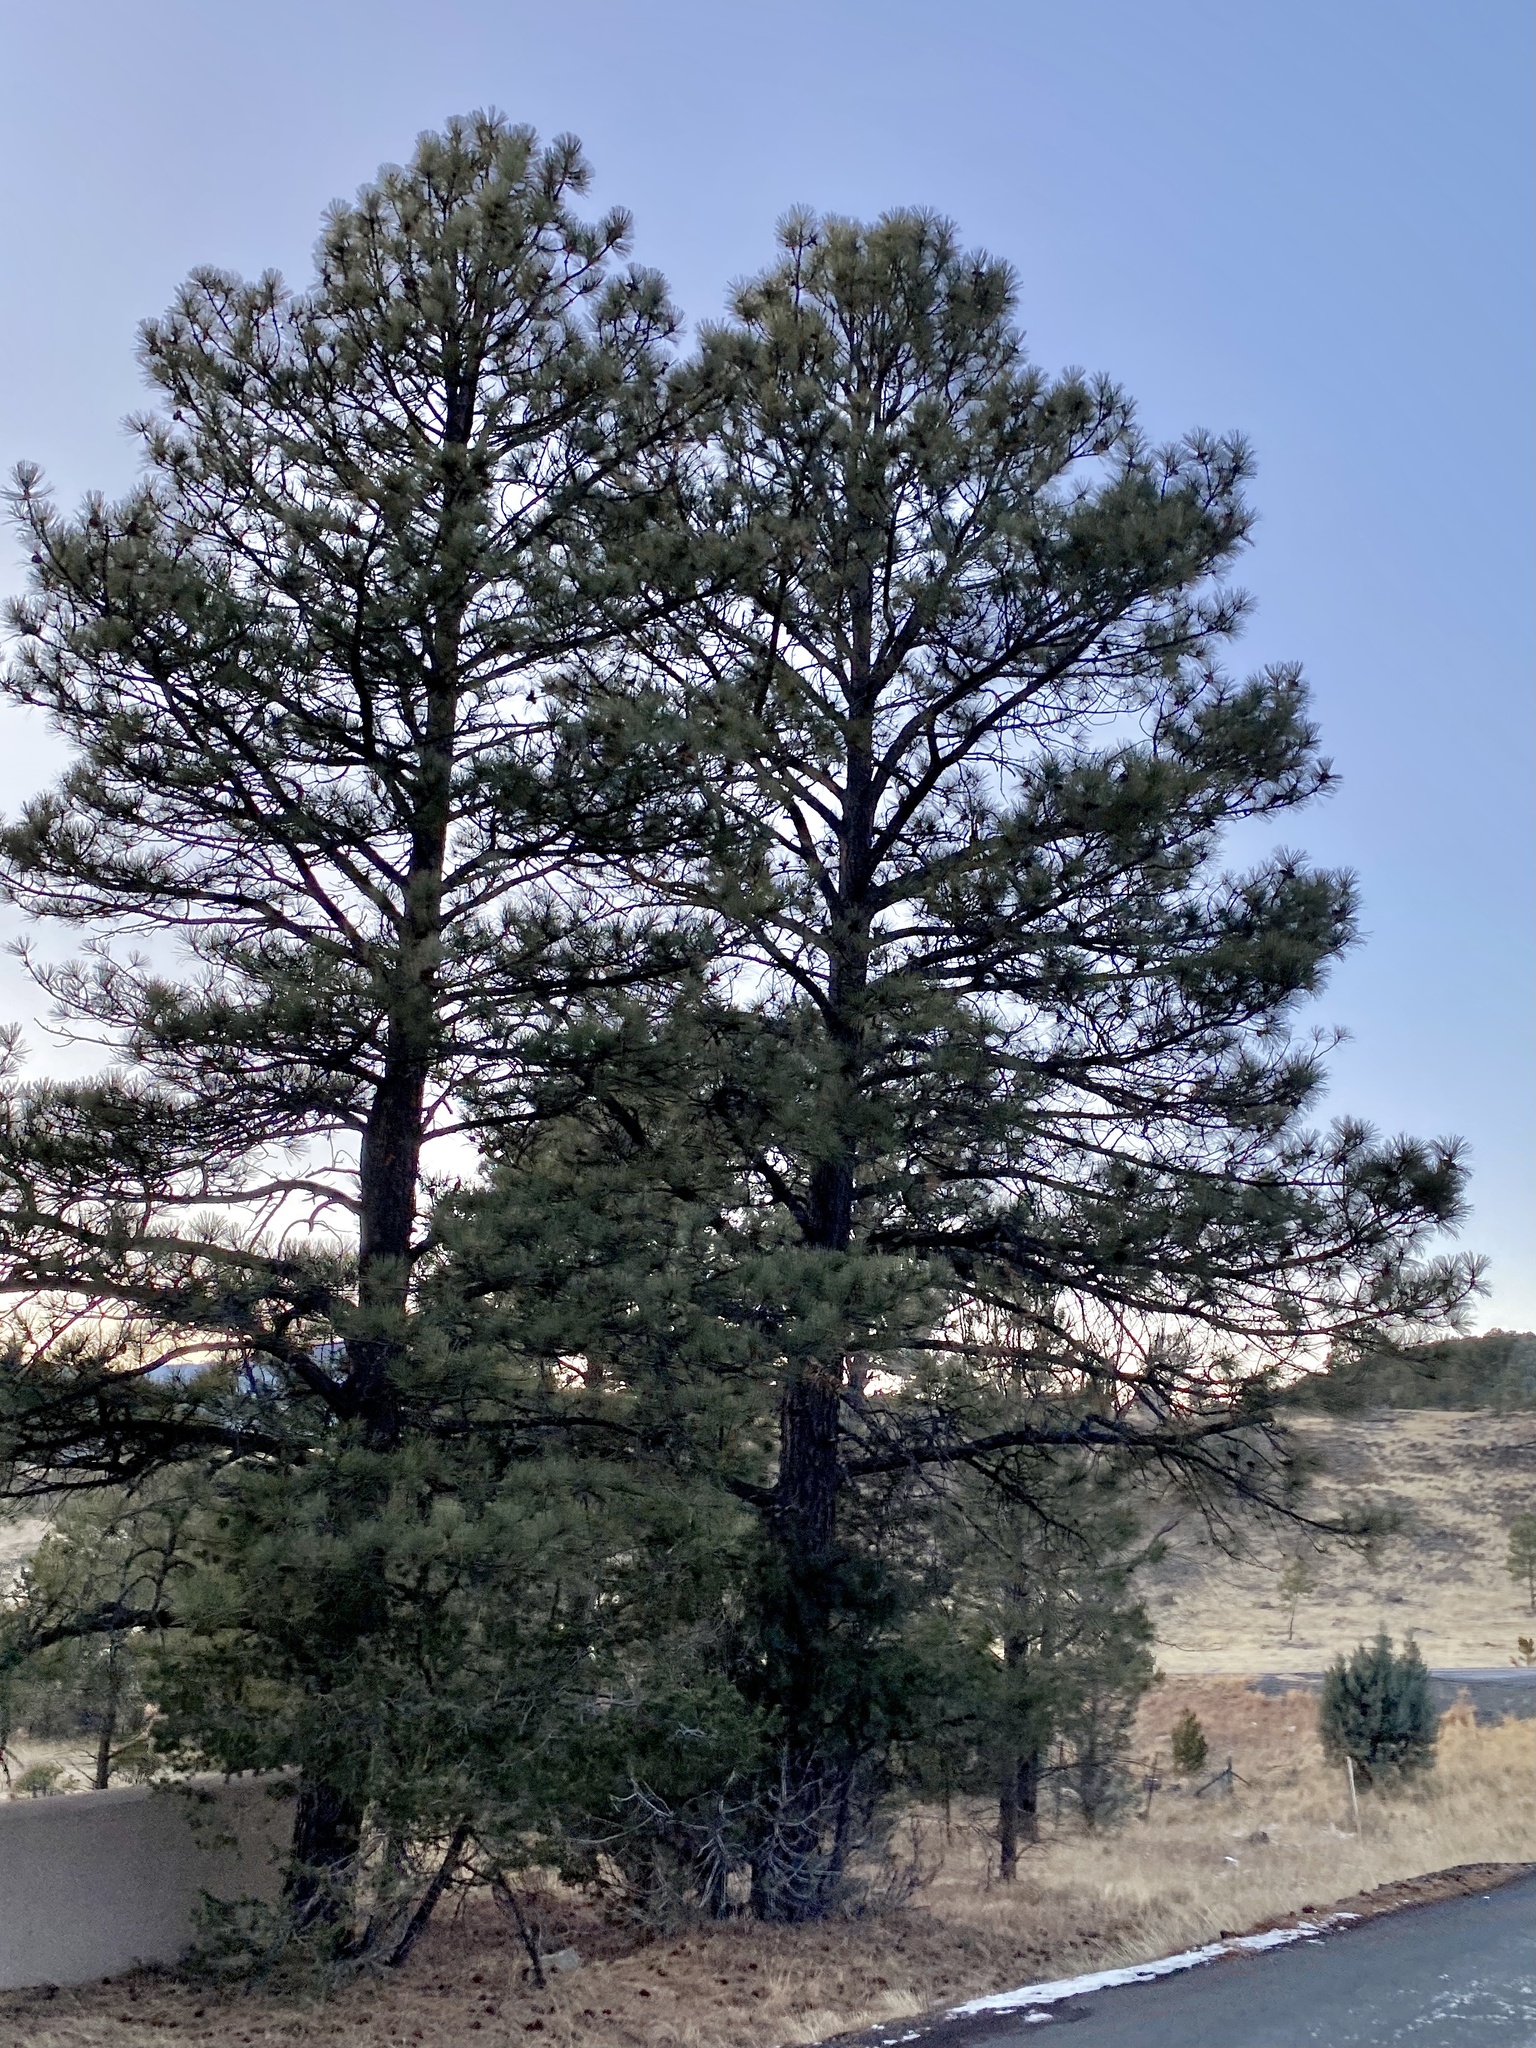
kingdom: Plantae
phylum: Tracheophyta
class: Pinopsida
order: Pinales
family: Pinaceae
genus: Pinus
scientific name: Pinus ponderosa
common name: Western yellow-pine
